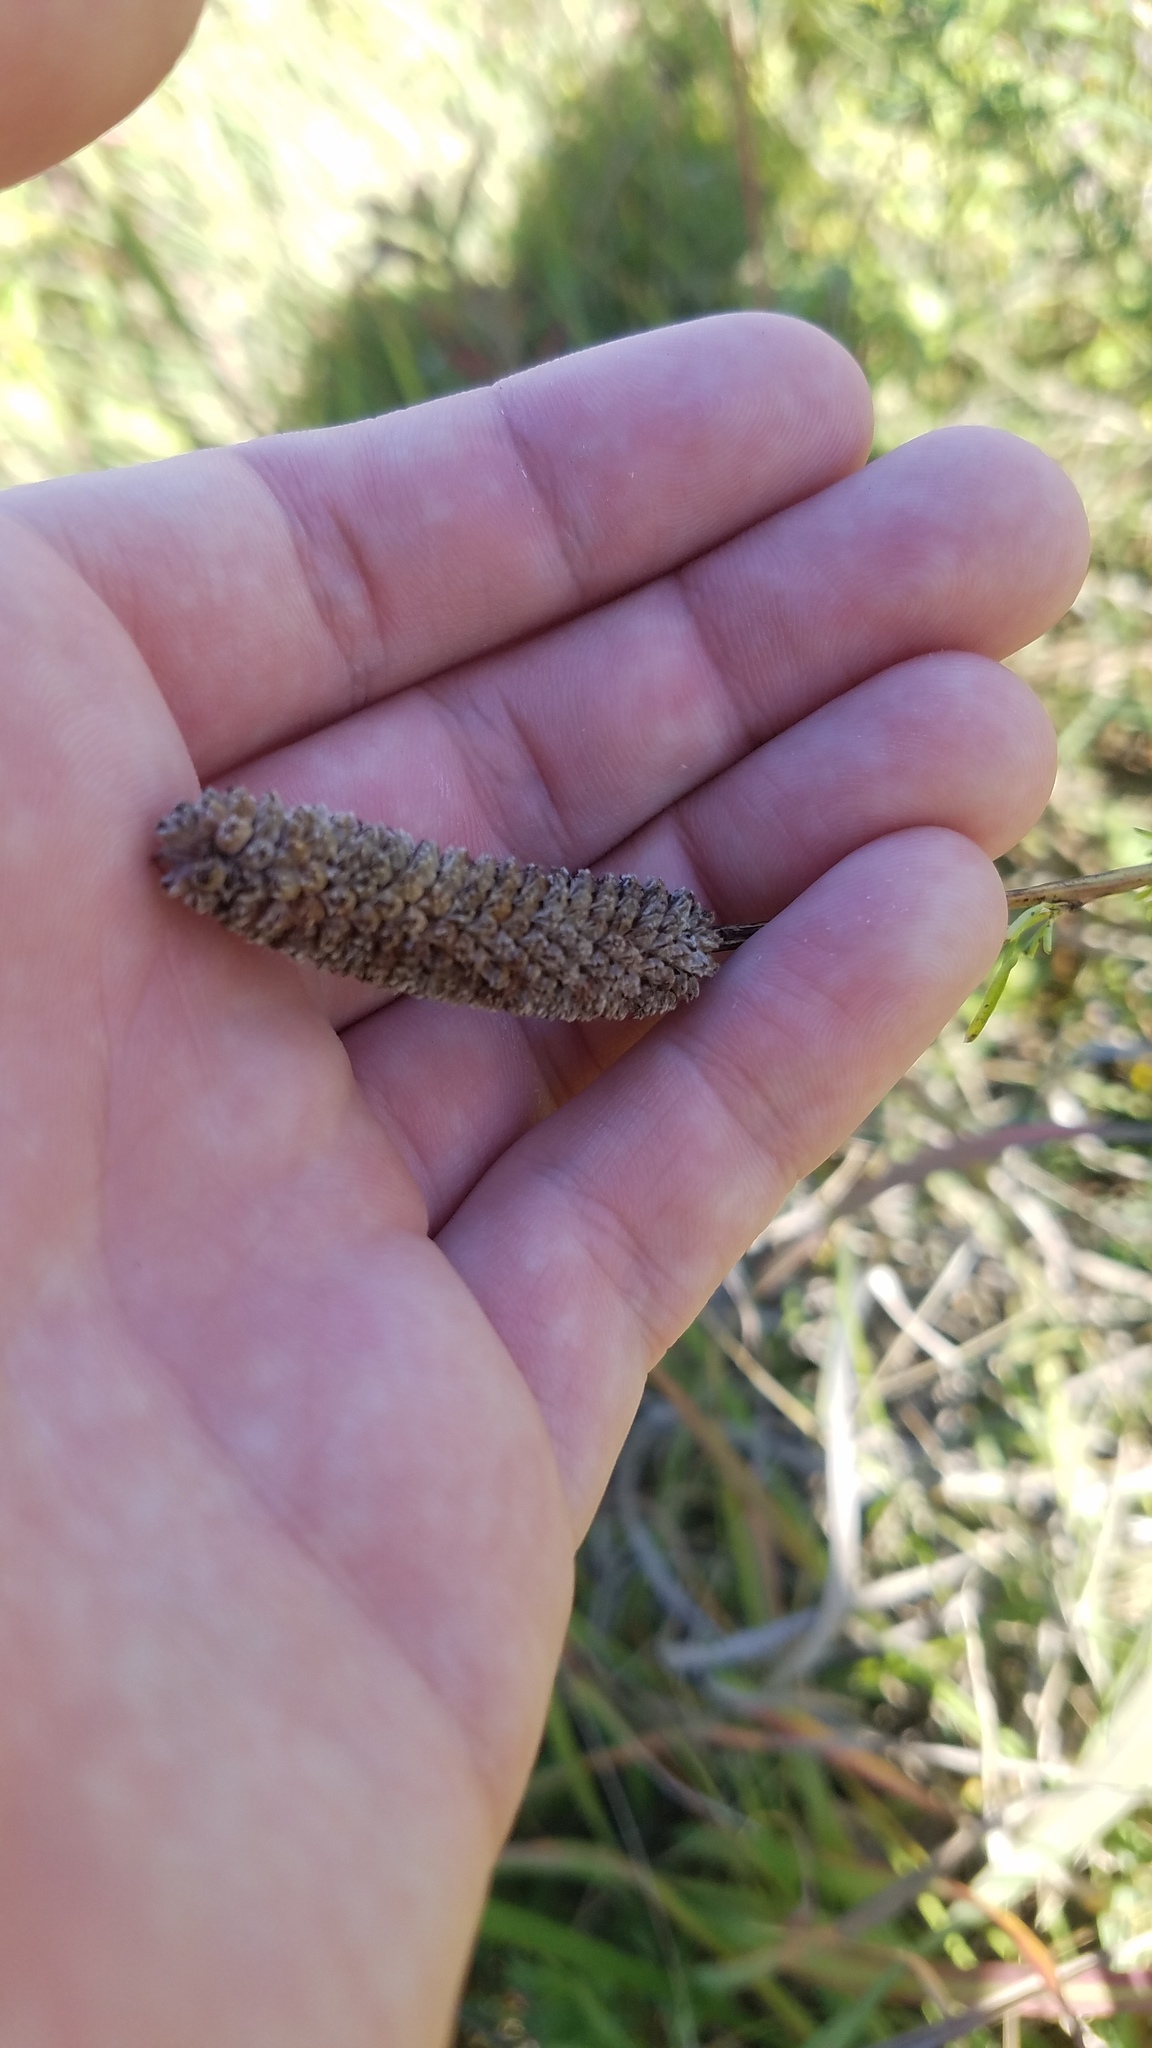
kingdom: Plantae
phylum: Tracheophyta
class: Magnoliopsida
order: Fabales
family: Fabaceae
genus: Dalea
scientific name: Dalea purpurea
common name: Purple prairie-clover
